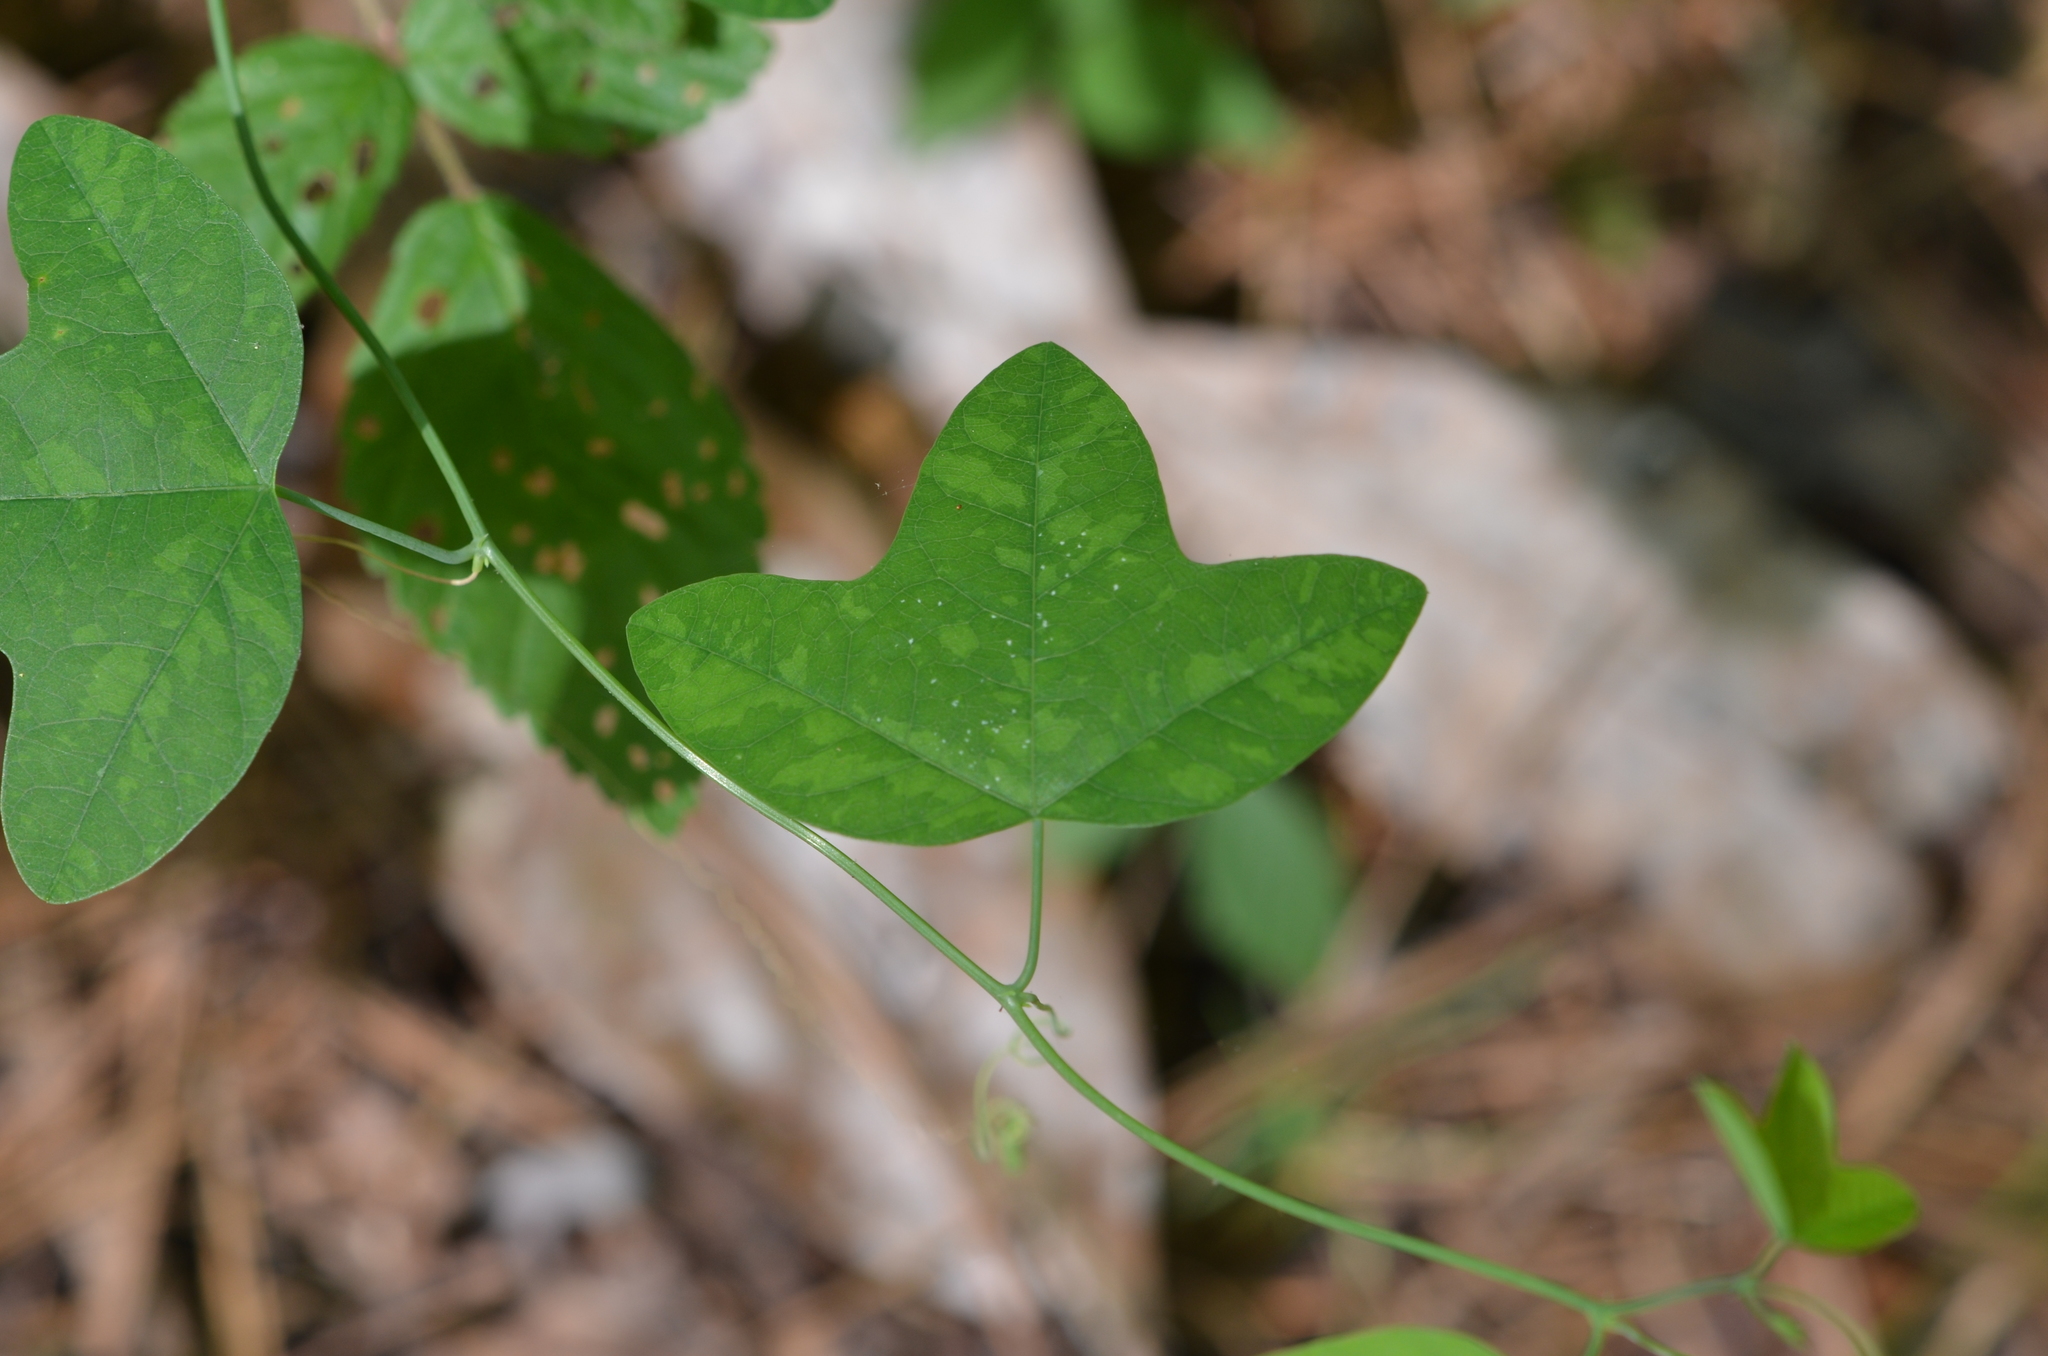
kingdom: Plantae
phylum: Tracheophyta
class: Magnoliopsida
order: Malpighiales
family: Passifloraceae
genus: Passiflora
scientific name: Passiflora lutea
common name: Yellow passionflower
